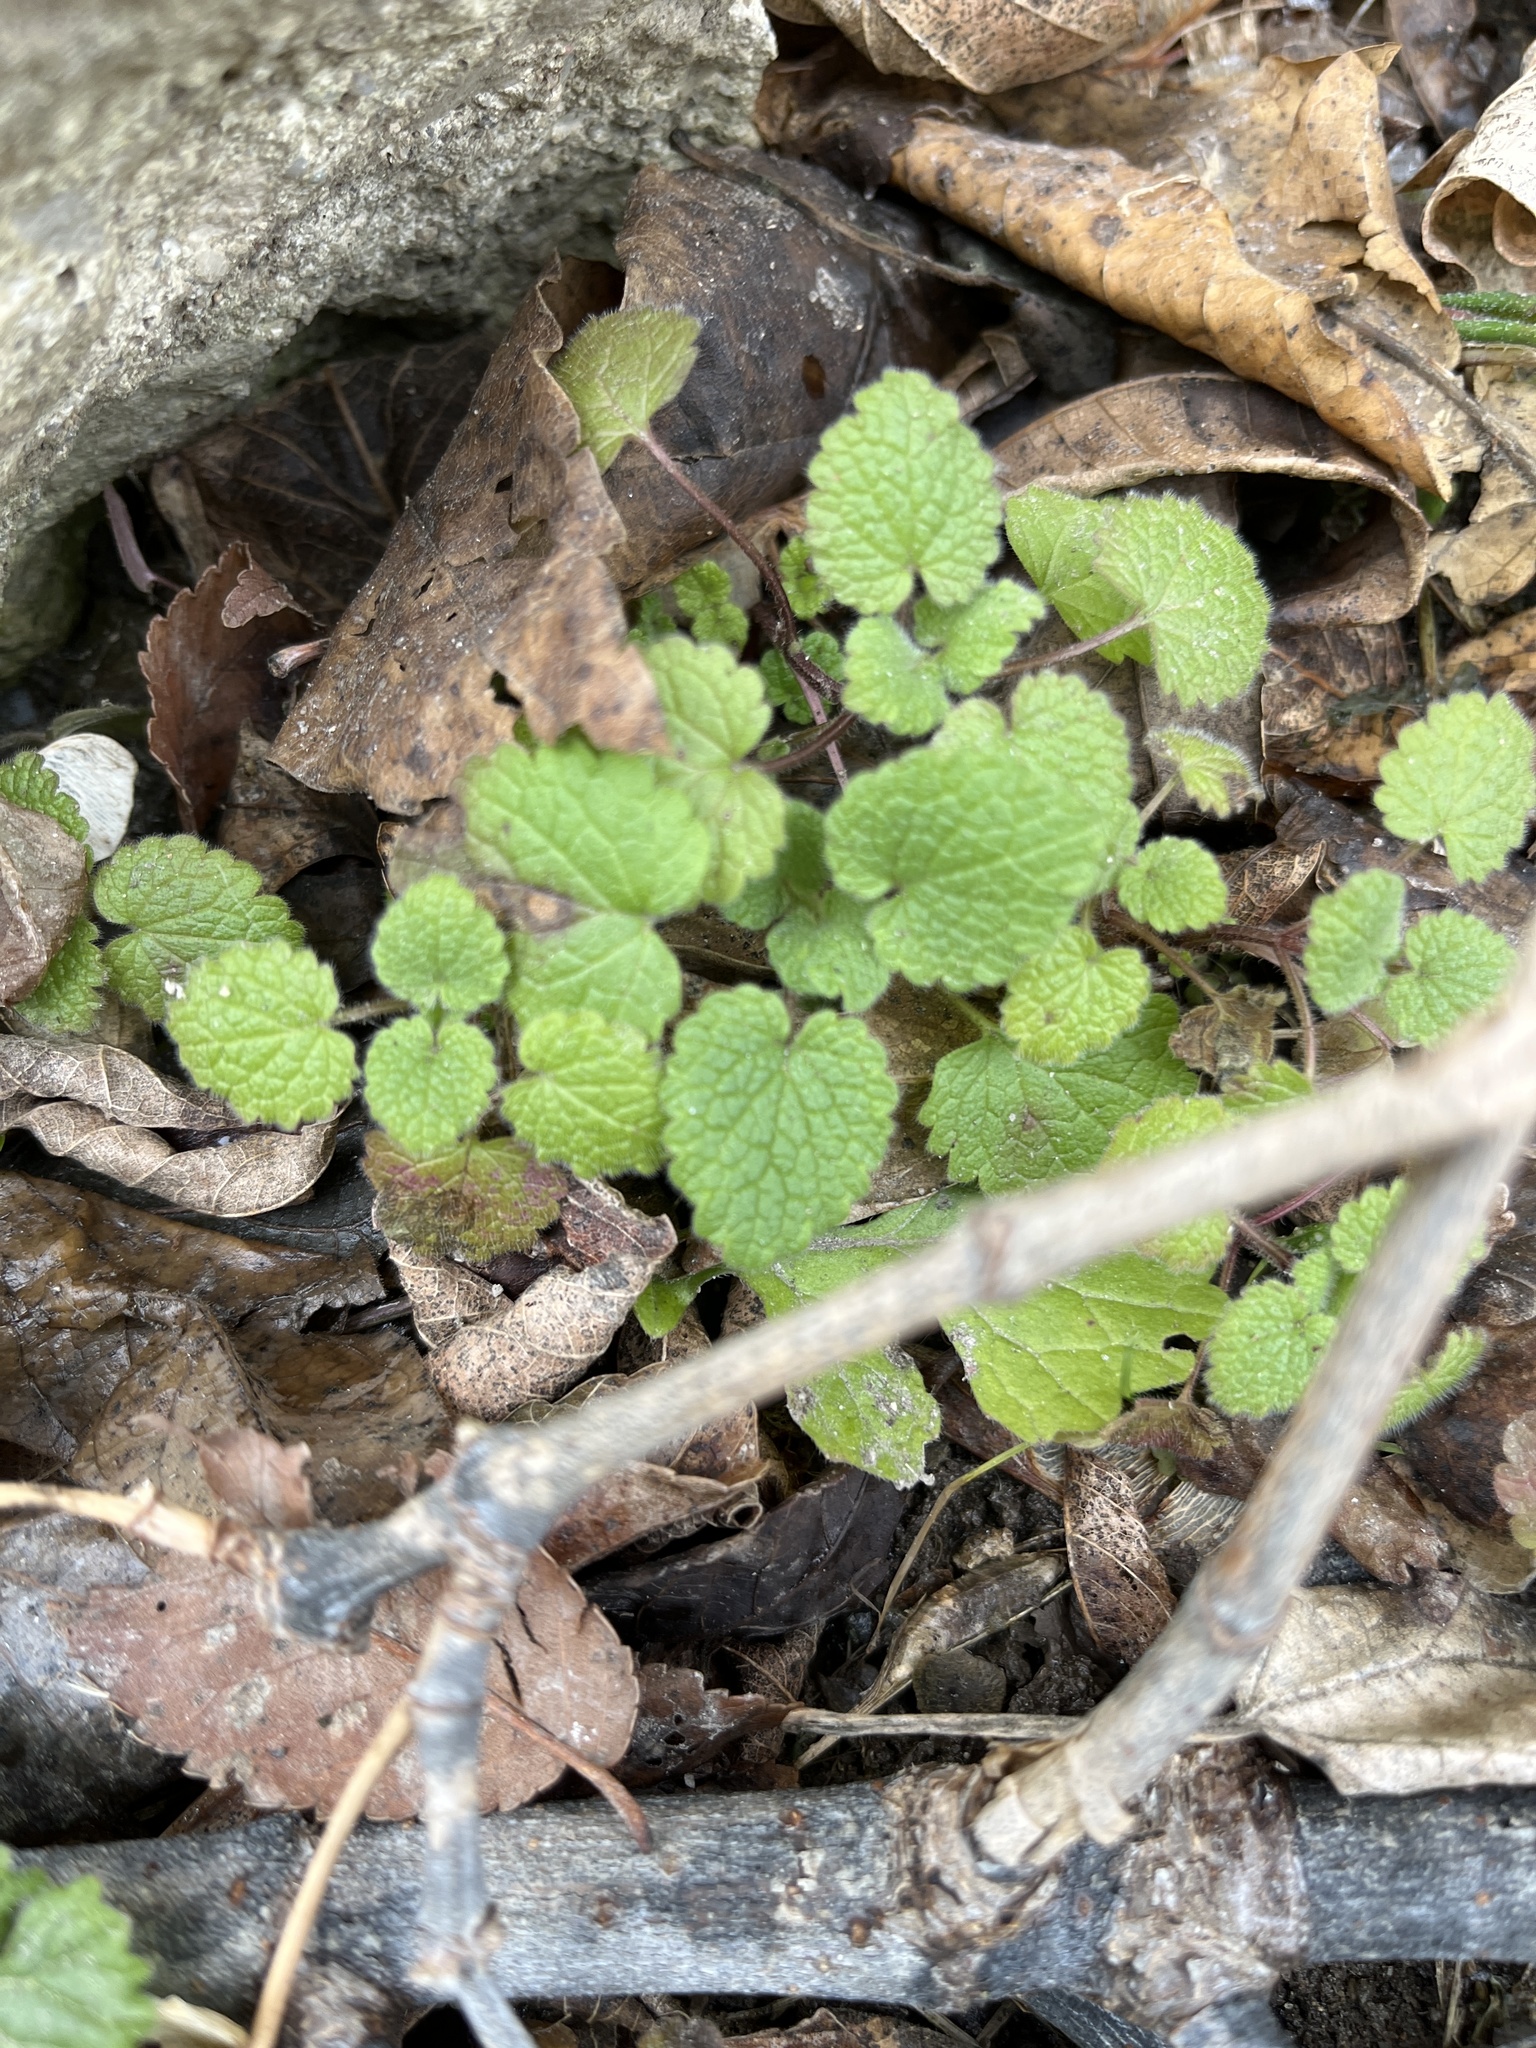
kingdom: Plantae
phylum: Tracheophyta
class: Magnoliopsida
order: Lamiales
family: Lamiaceae
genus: Lamium
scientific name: Lamium purpureum
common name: Red dead-nettle
